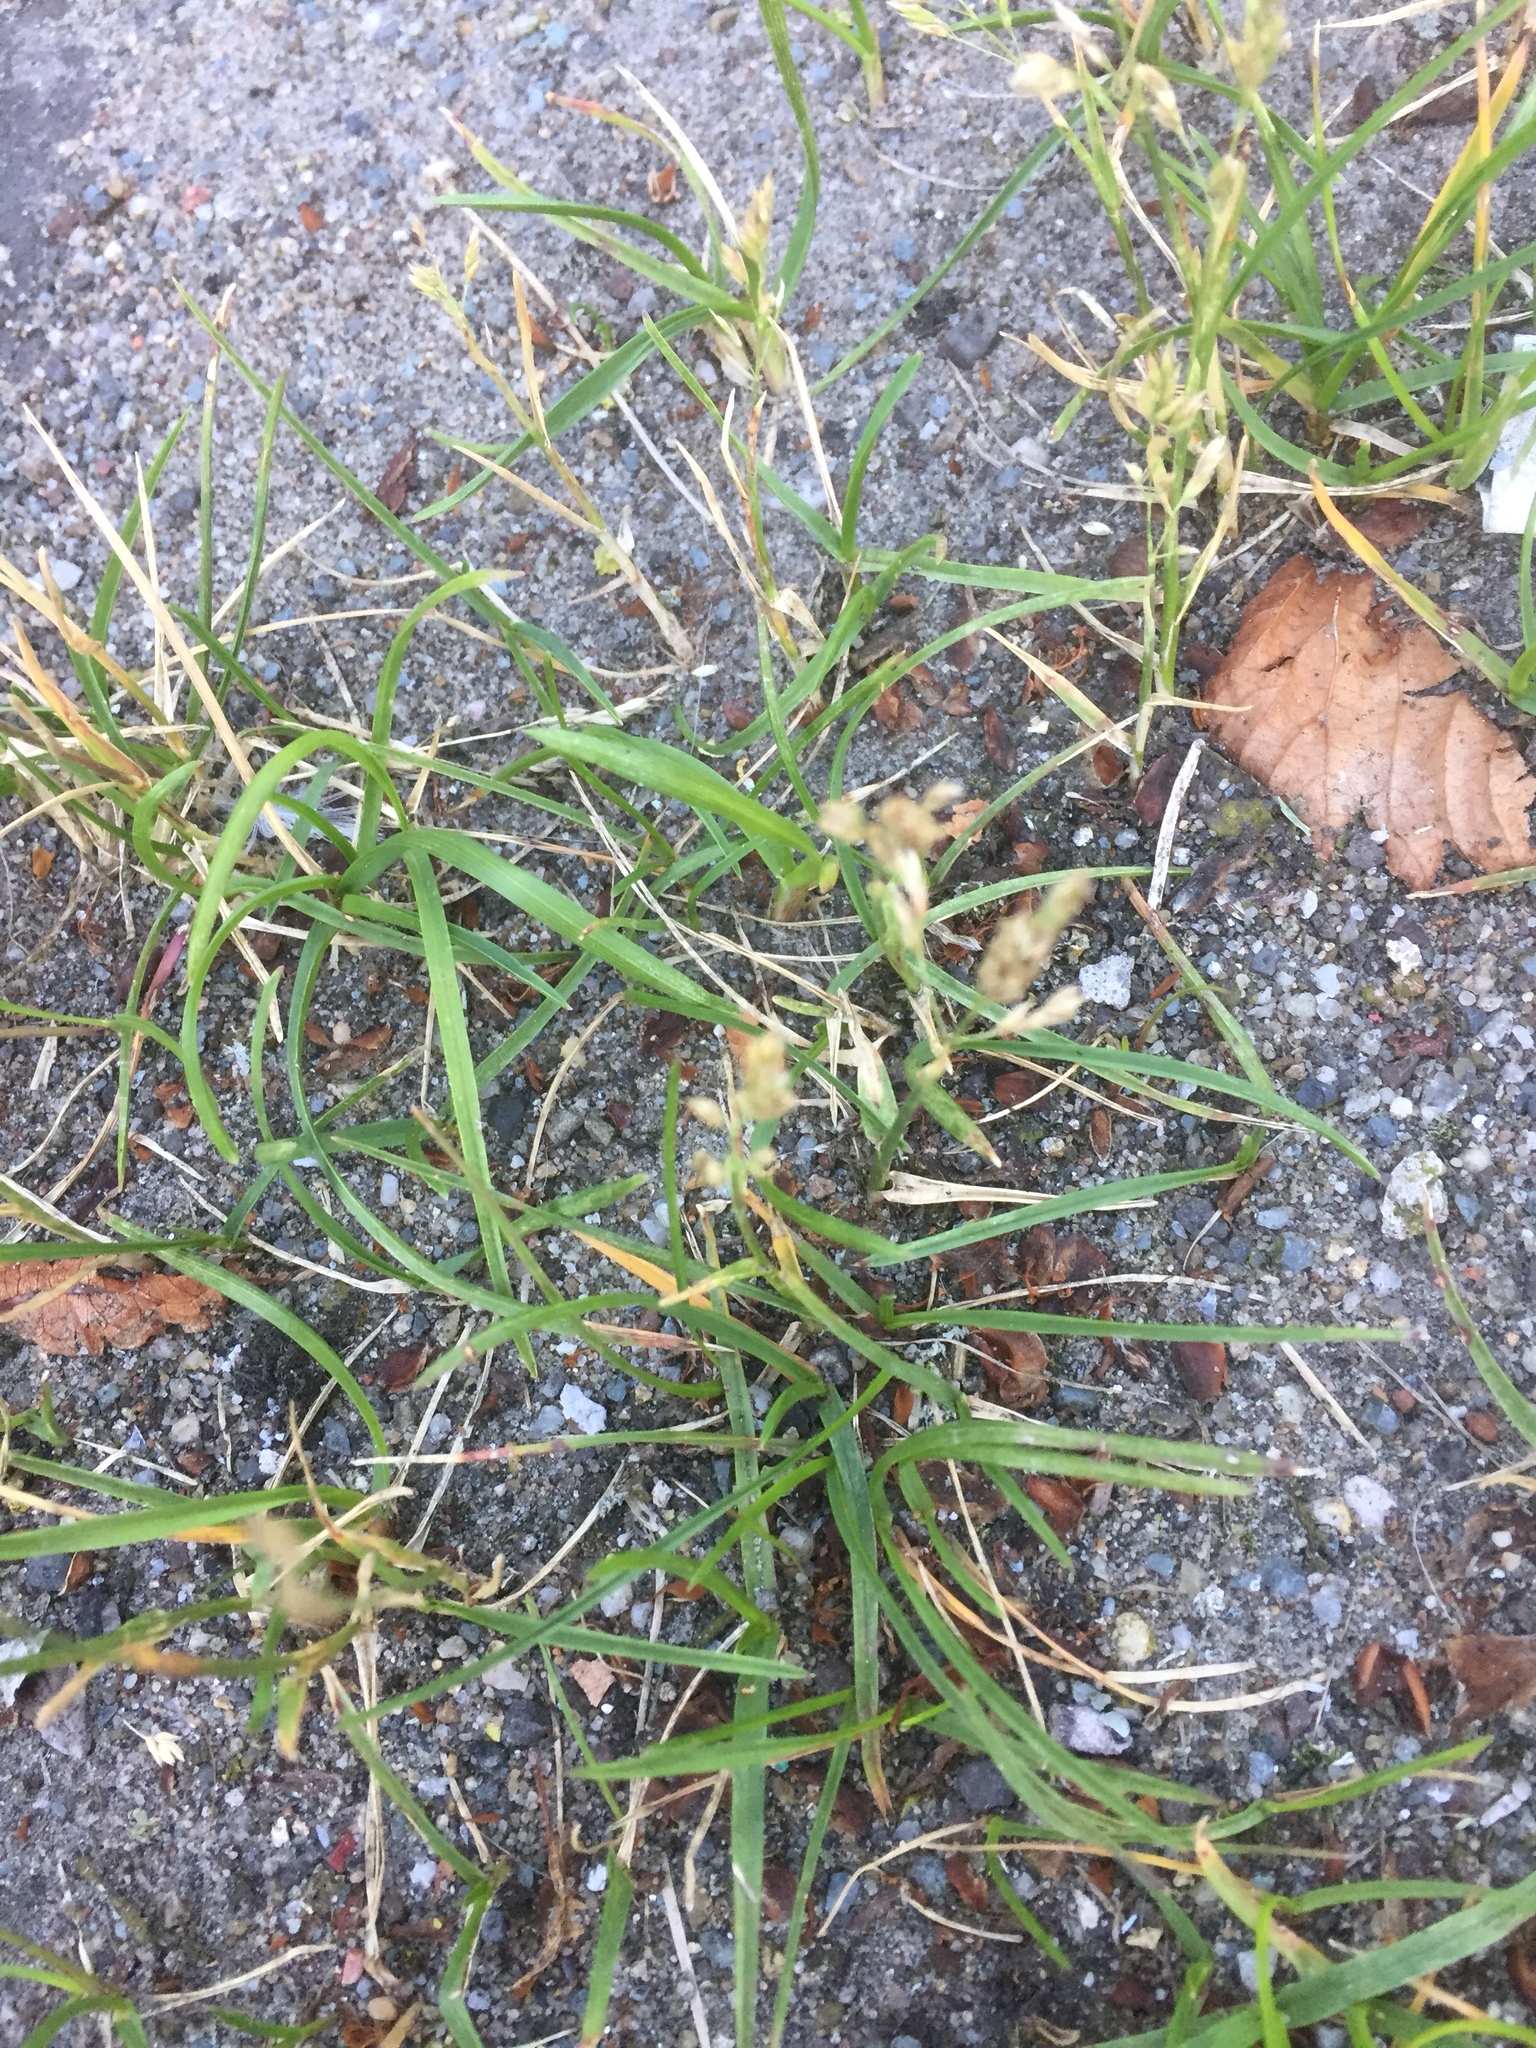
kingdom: Plantae
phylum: Tracheophyta
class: Liliopsida
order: Poales
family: Poaceae
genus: Poa
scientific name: Poa annua
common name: Annual bluegrass
